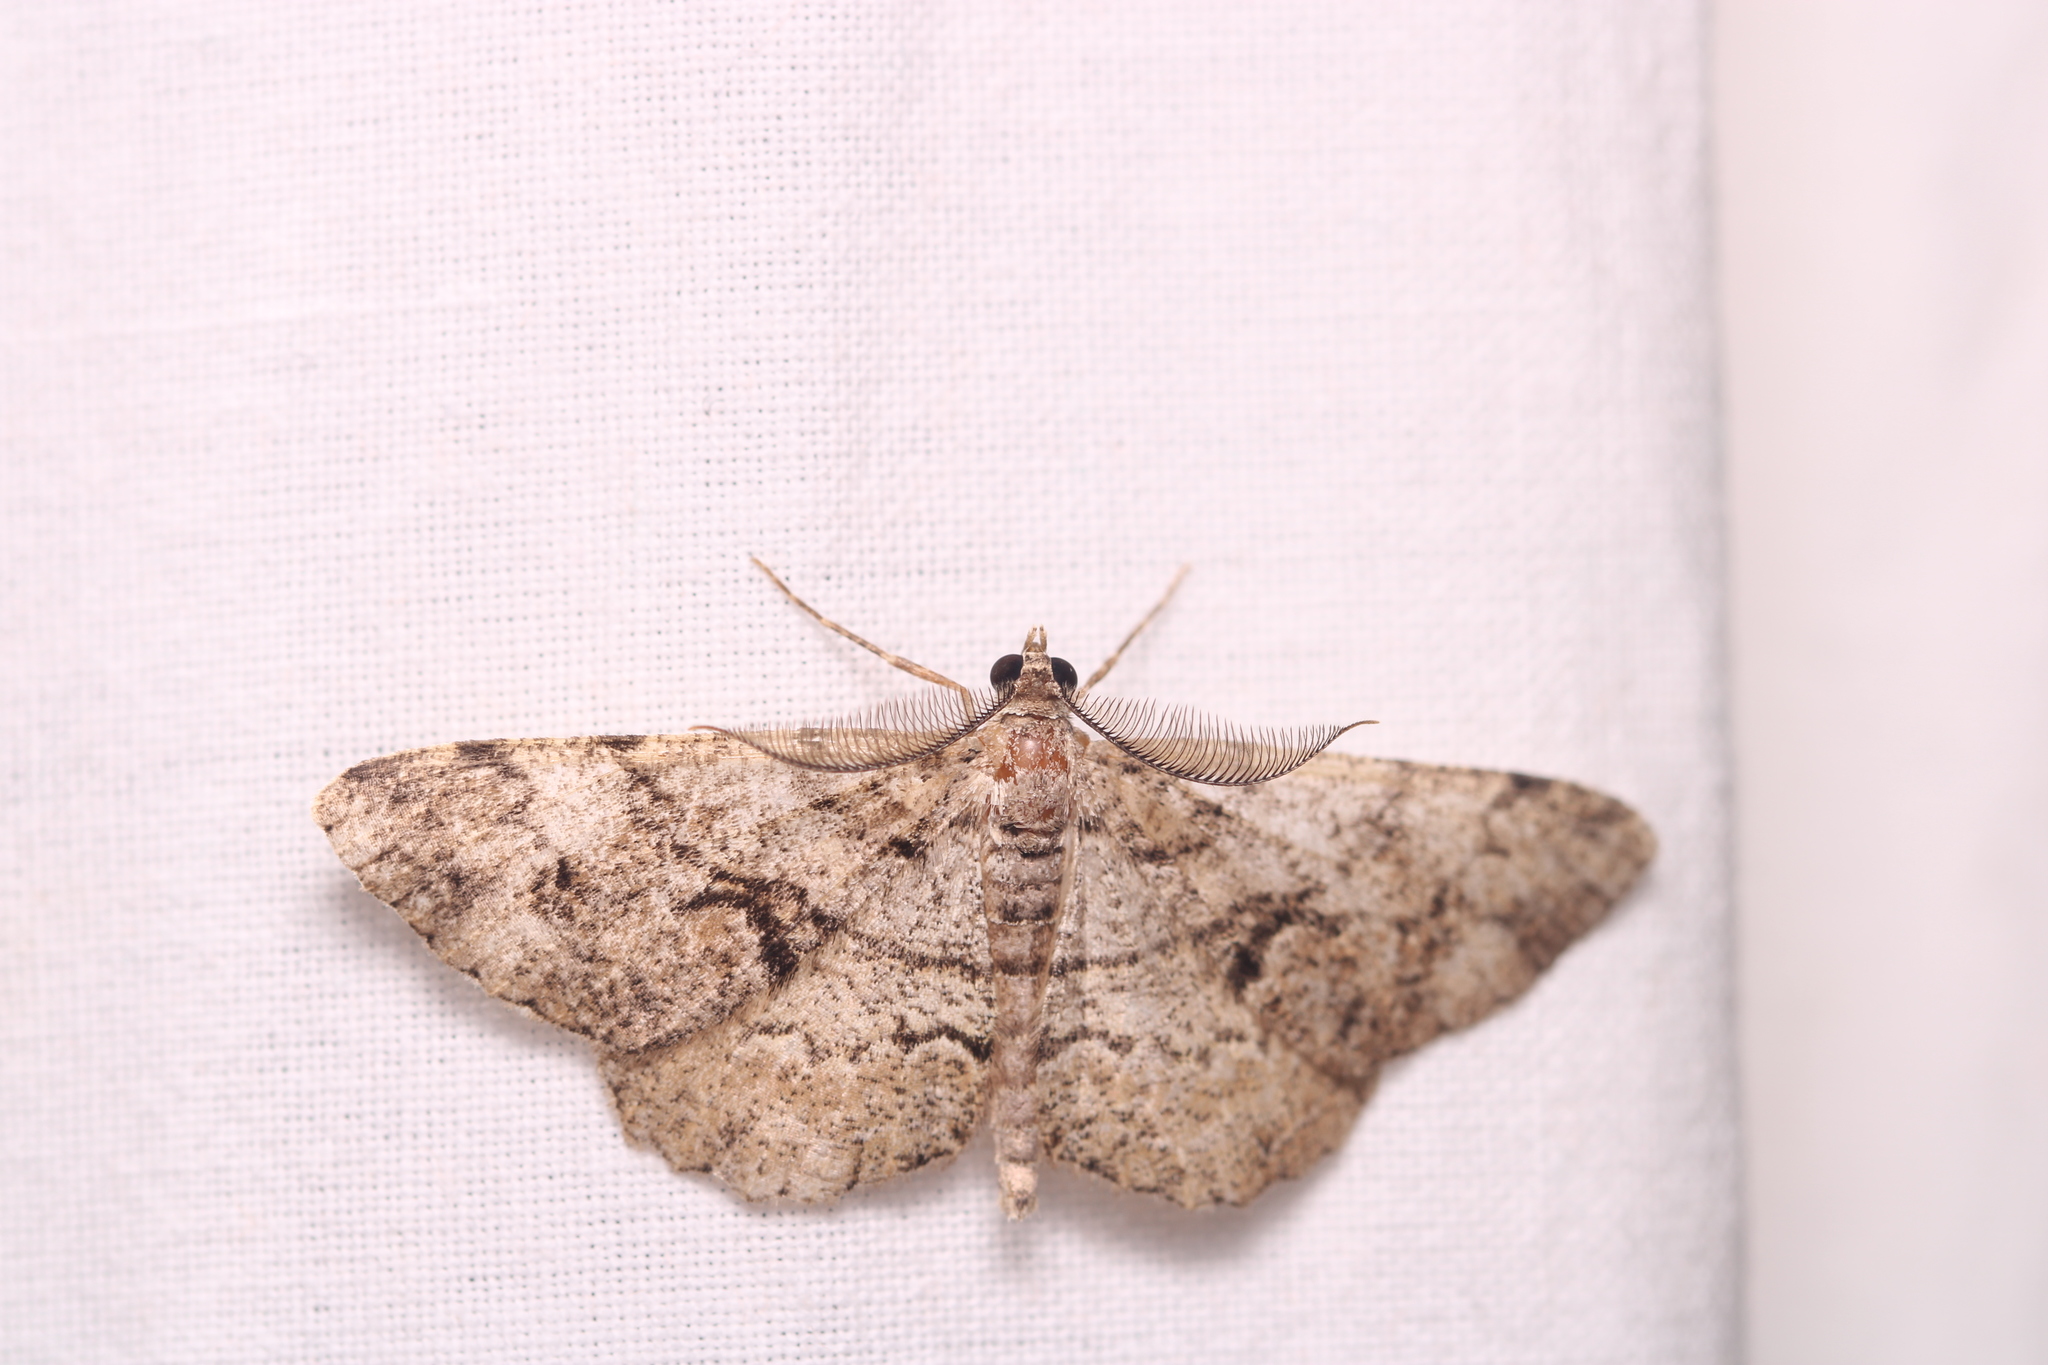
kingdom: Animalia
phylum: Arthropoda
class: Insecta
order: Lepidoptera
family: Geometridae
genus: Peribatodes
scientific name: Peribatodes secundaria
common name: Feathered beauty
